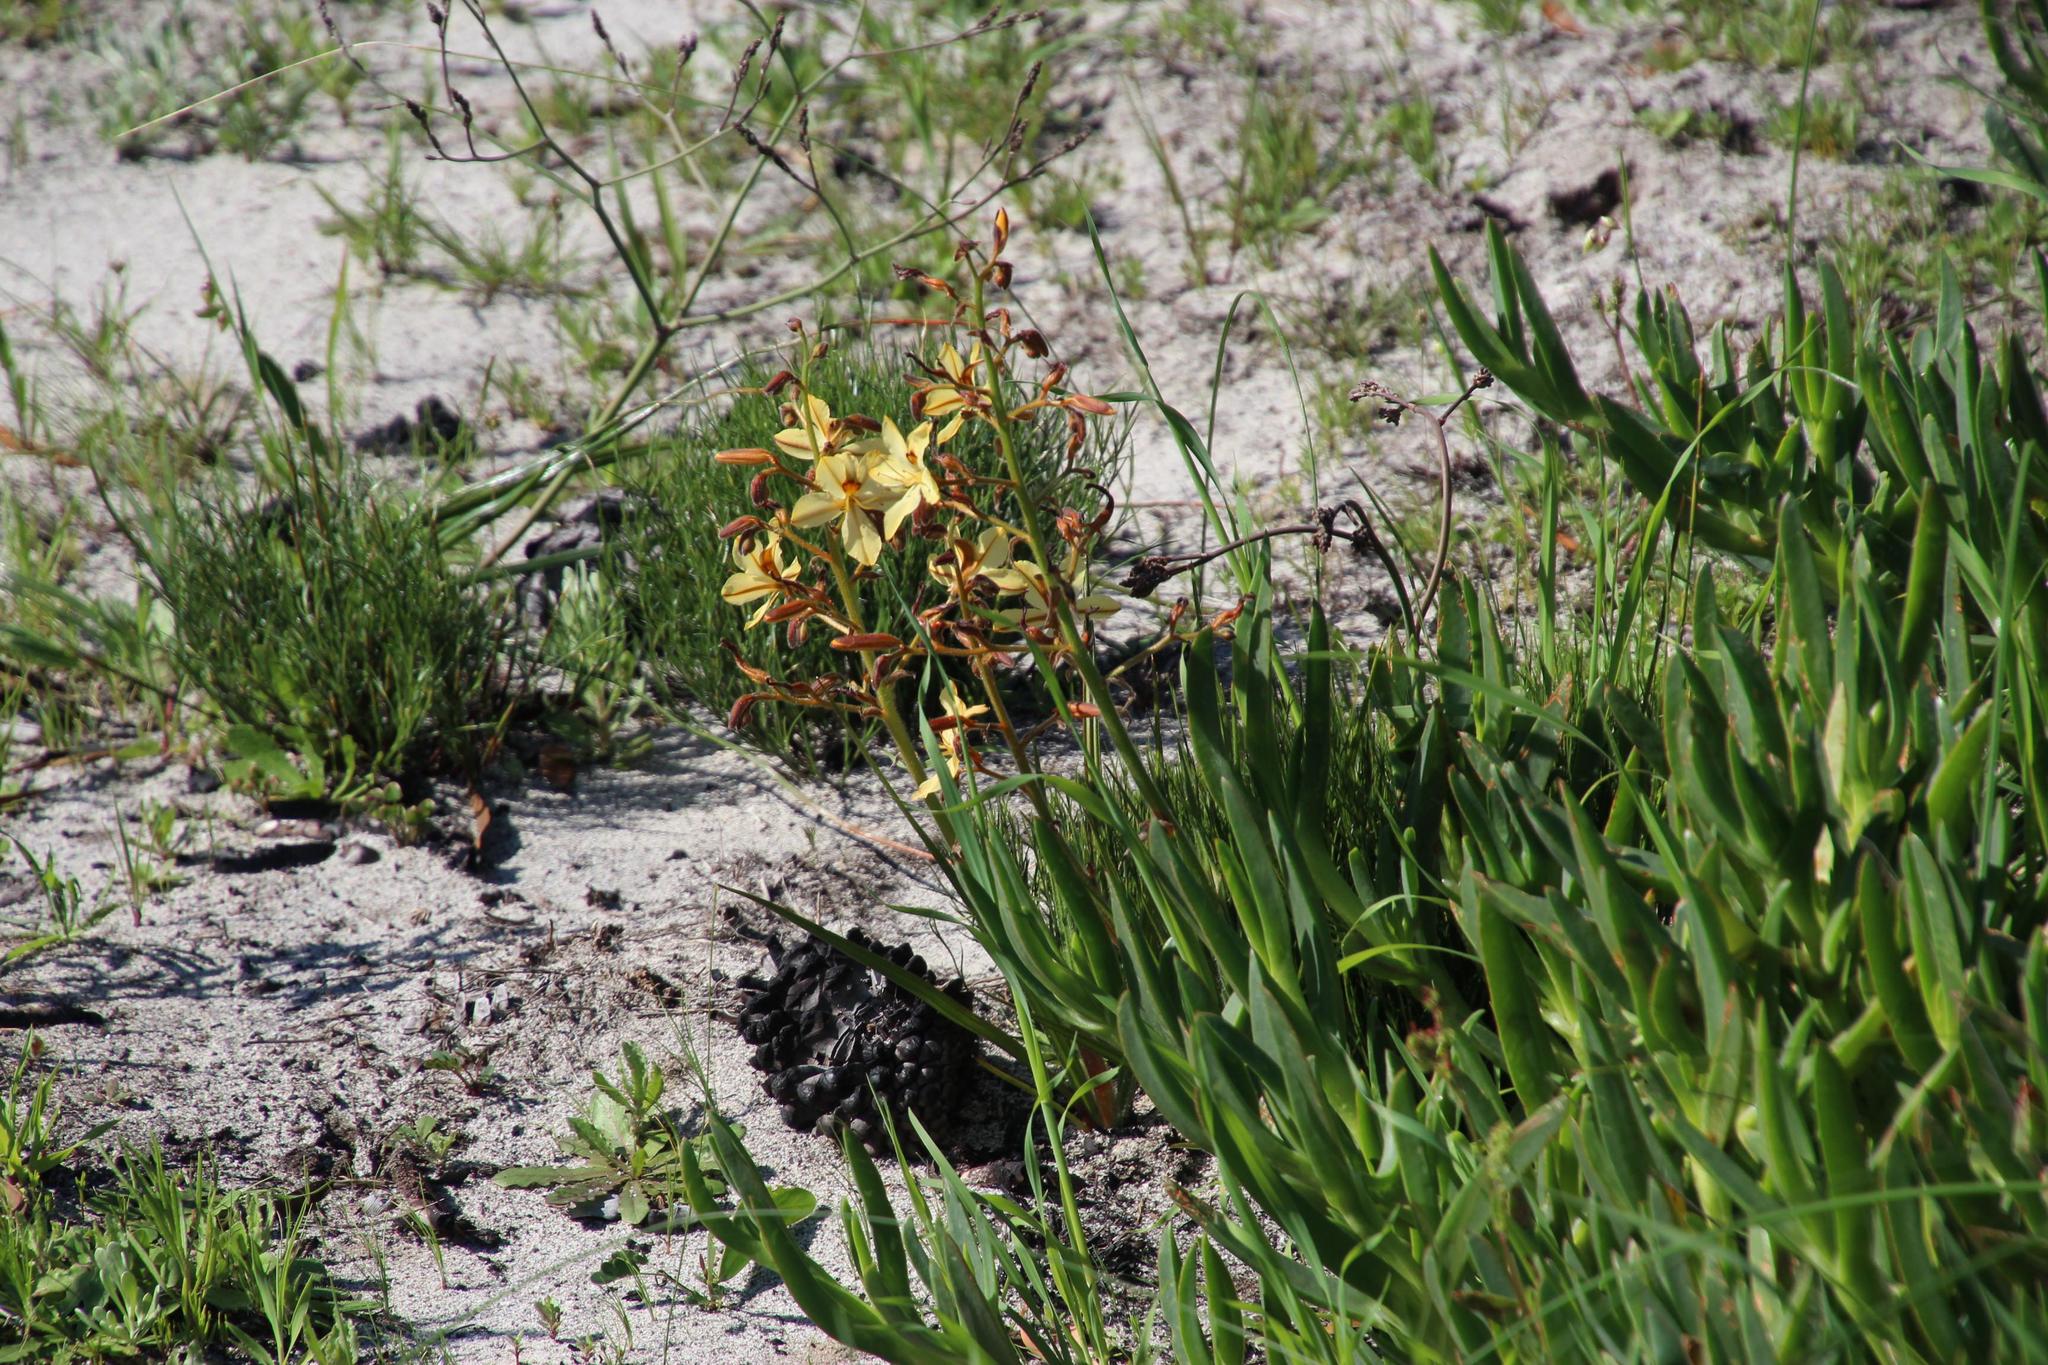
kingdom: Plantae
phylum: Tracheophyta
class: Liliopsida
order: Commelinales
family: Haemodoraceae
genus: Wachendorfia
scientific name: Wachendorfia paniculata
